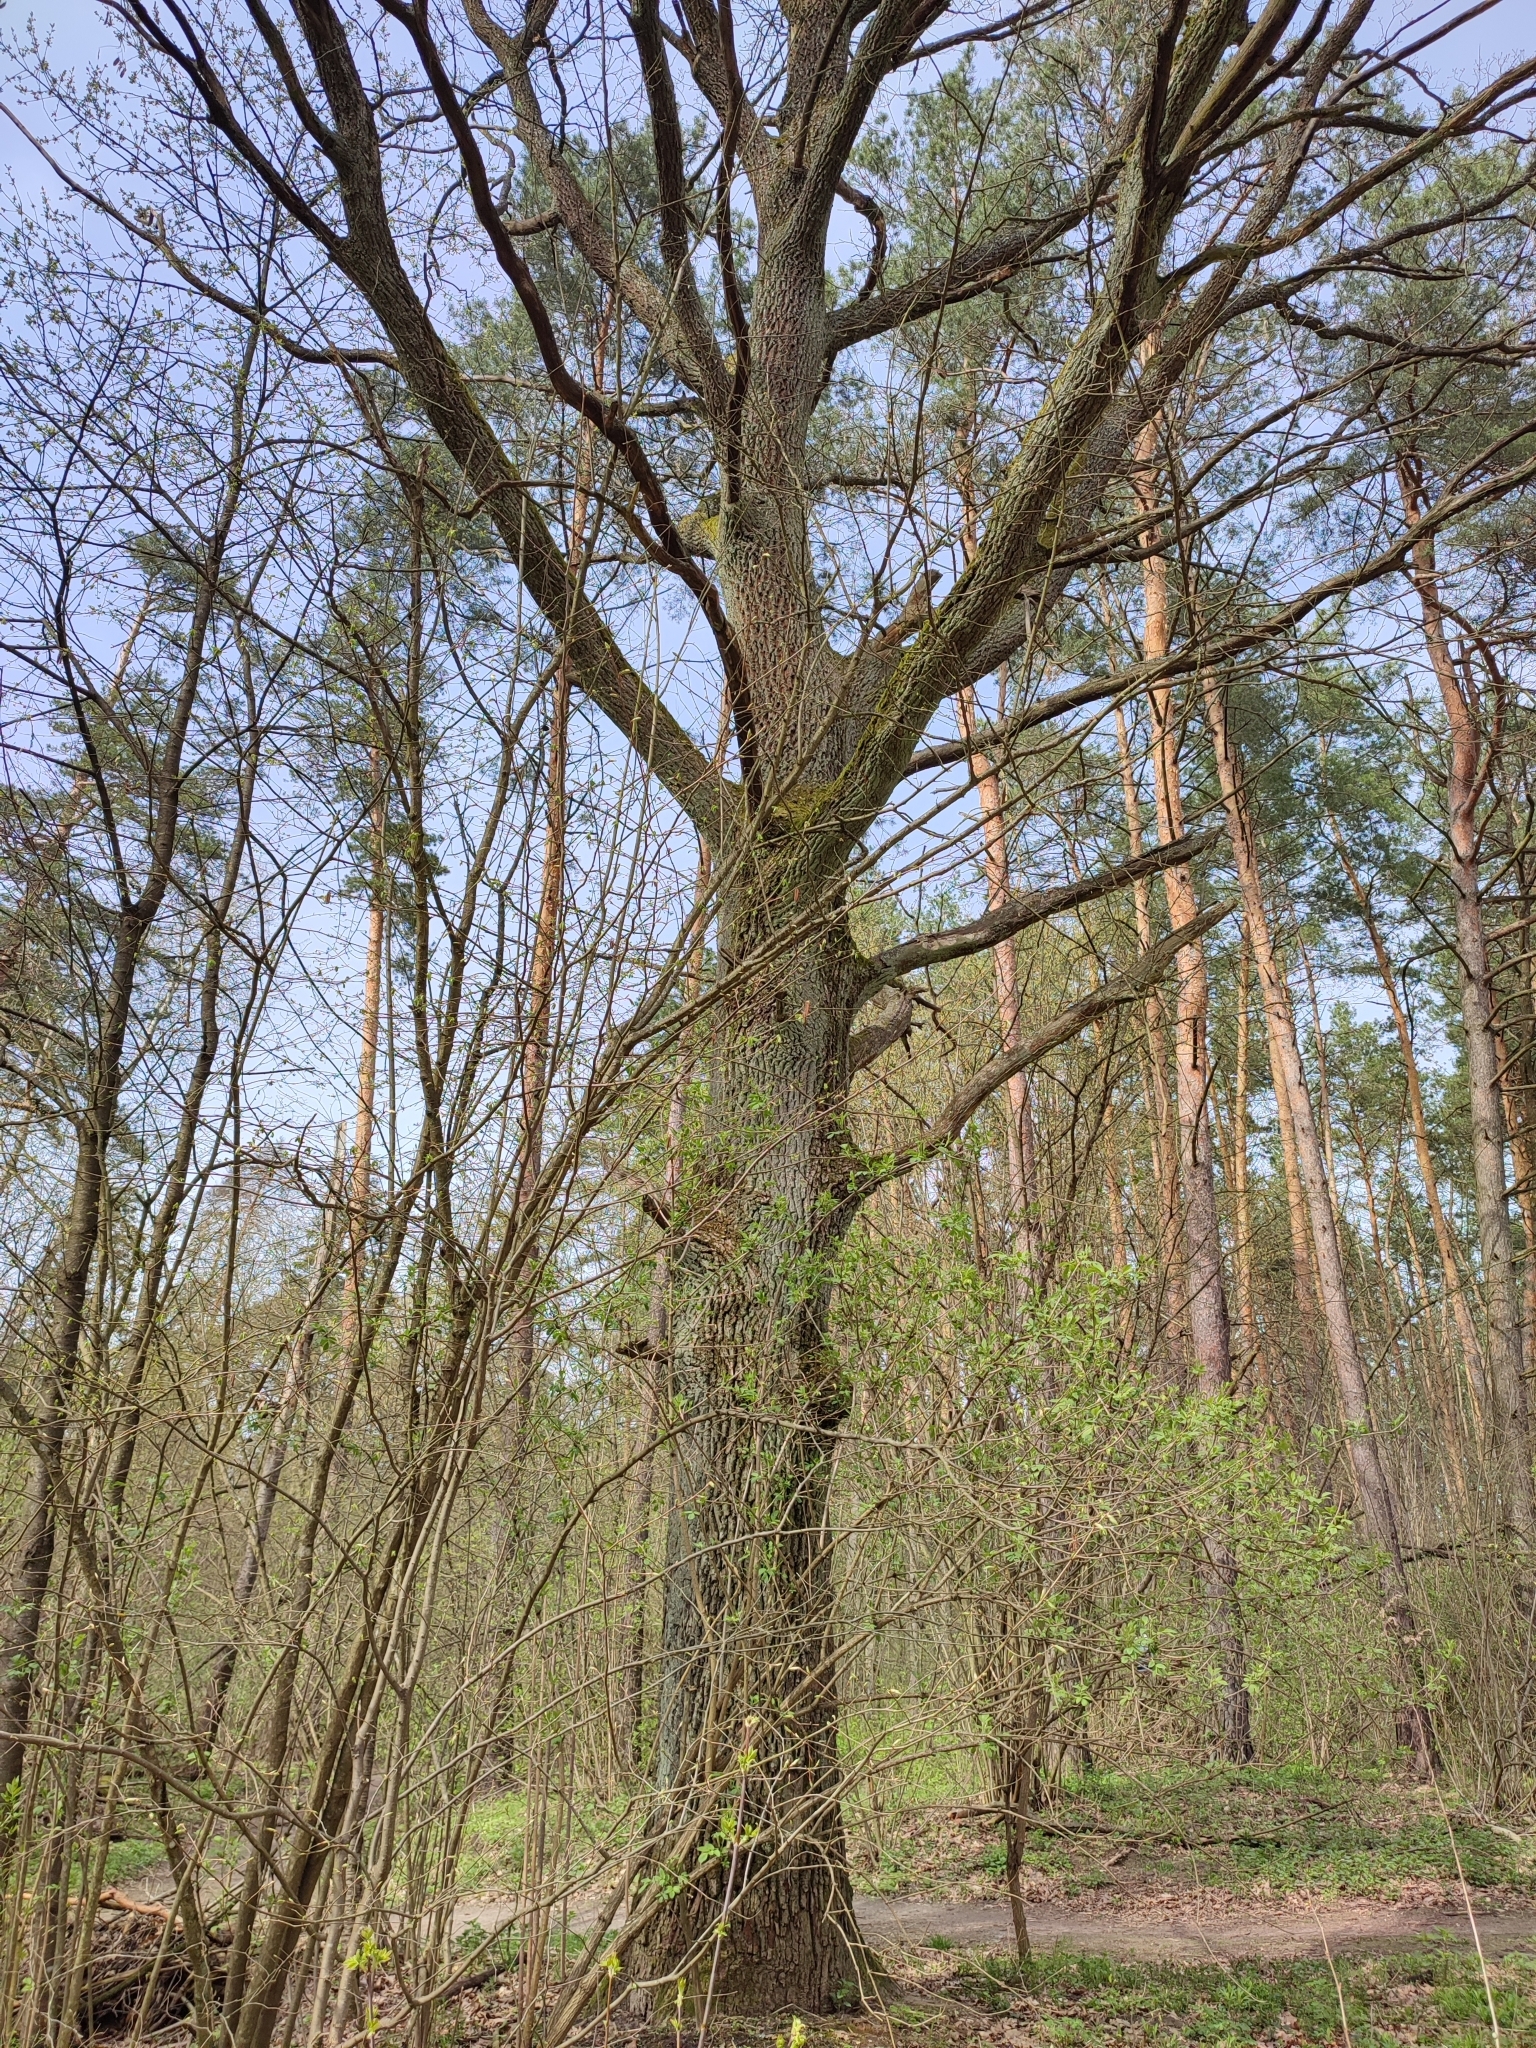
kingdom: Plantae
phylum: Tracheophyta
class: Magnoliopsida
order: Fagales
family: Fagaceae
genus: Quercus
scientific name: Quercus robur
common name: Pedunculate oak
